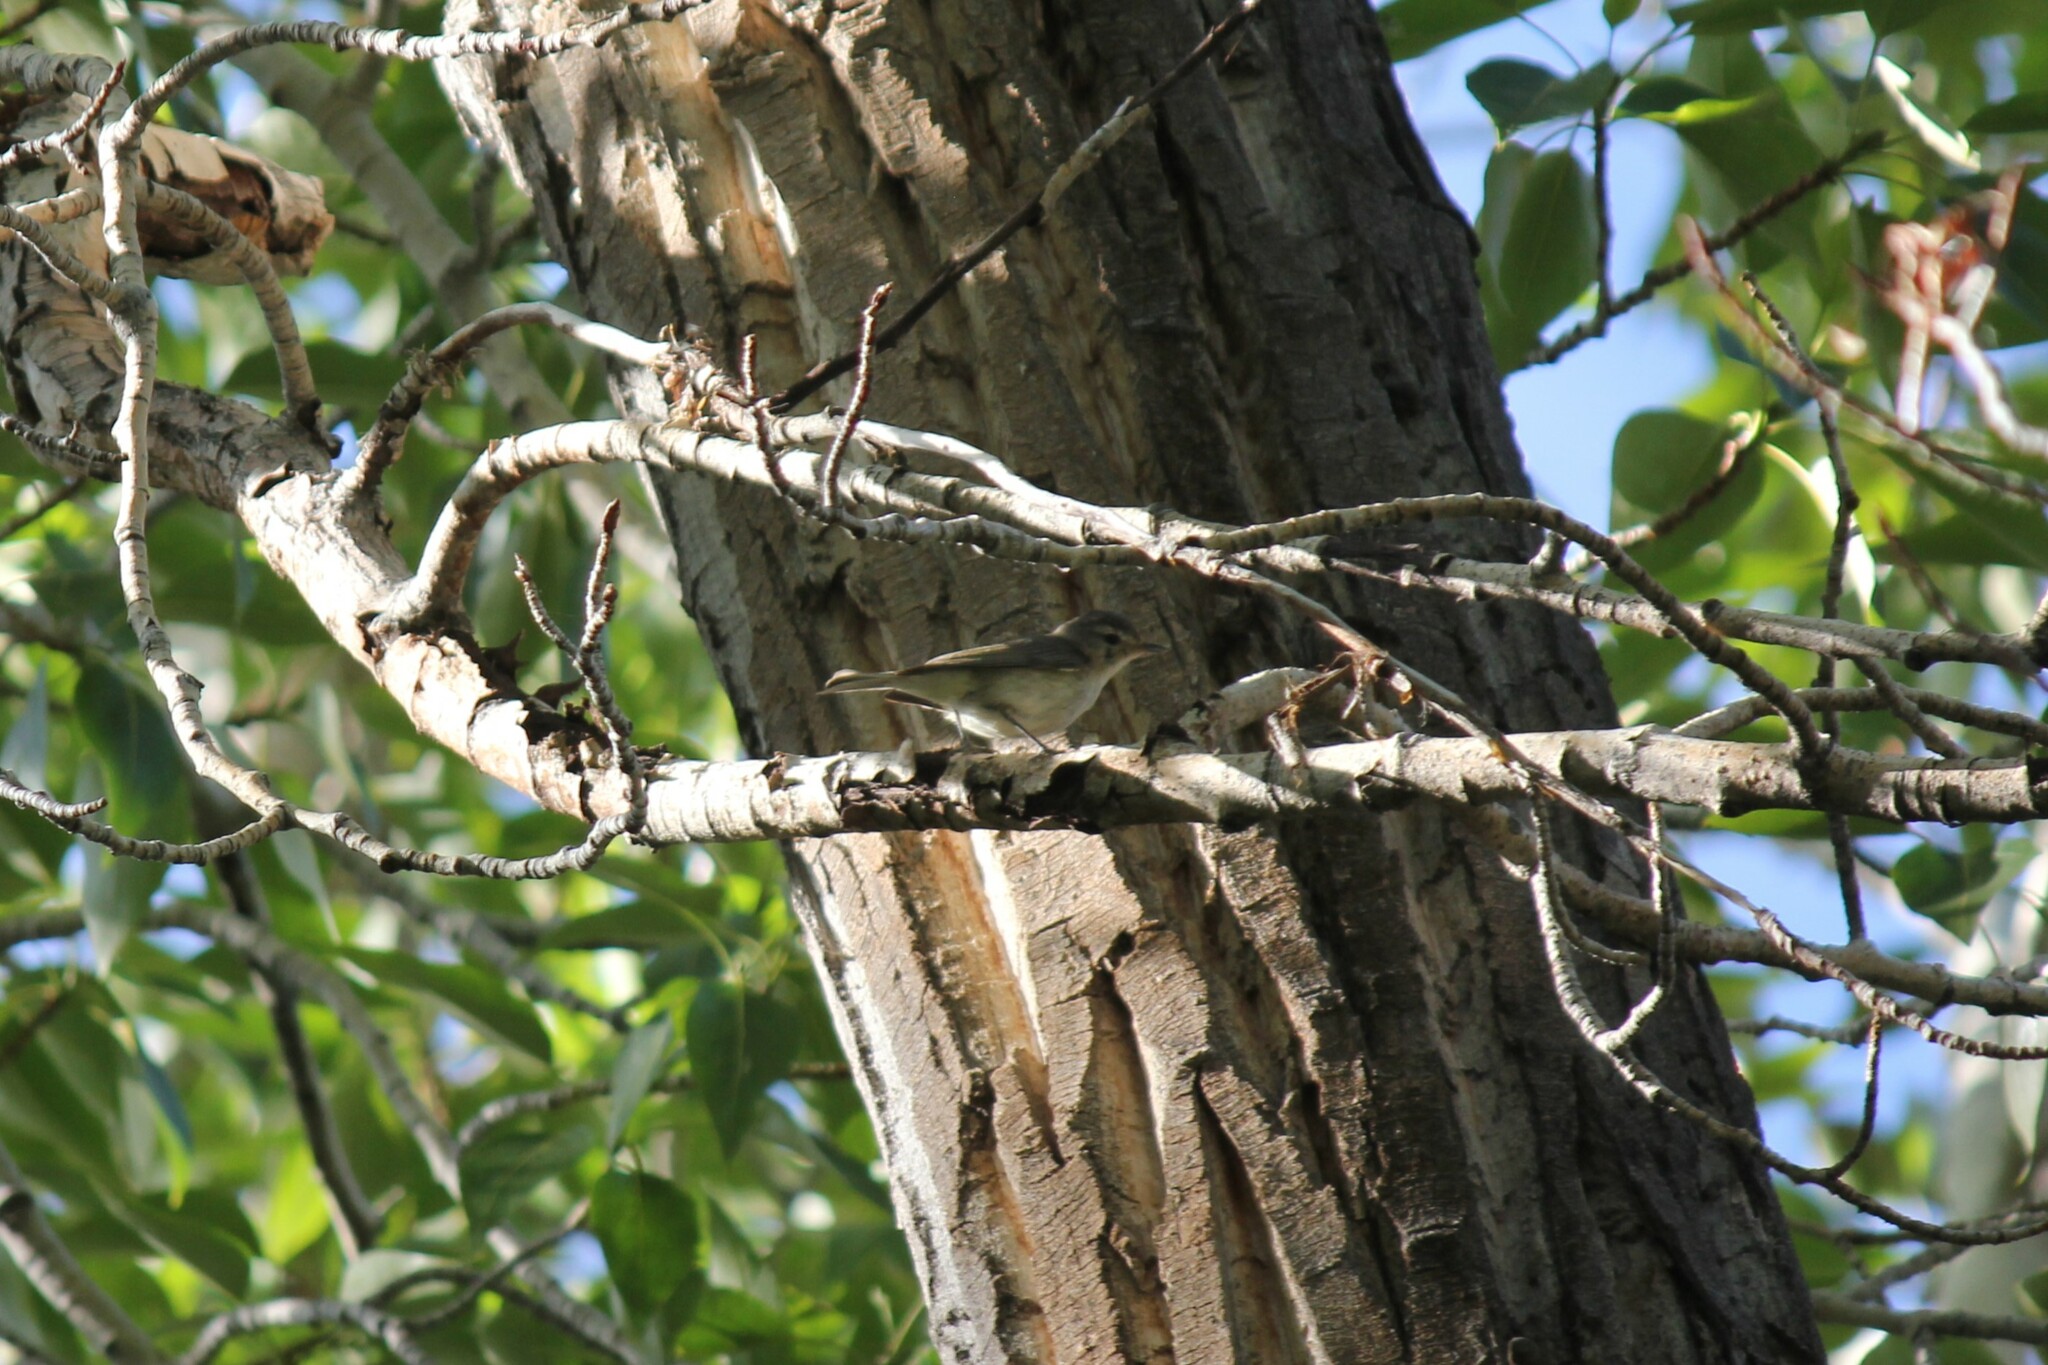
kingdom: Animalia
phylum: Chordata
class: Aves
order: Passeriformes
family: Vireonidae
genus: Vireo
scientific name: Vireo gilvus
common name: Warbling vireo
